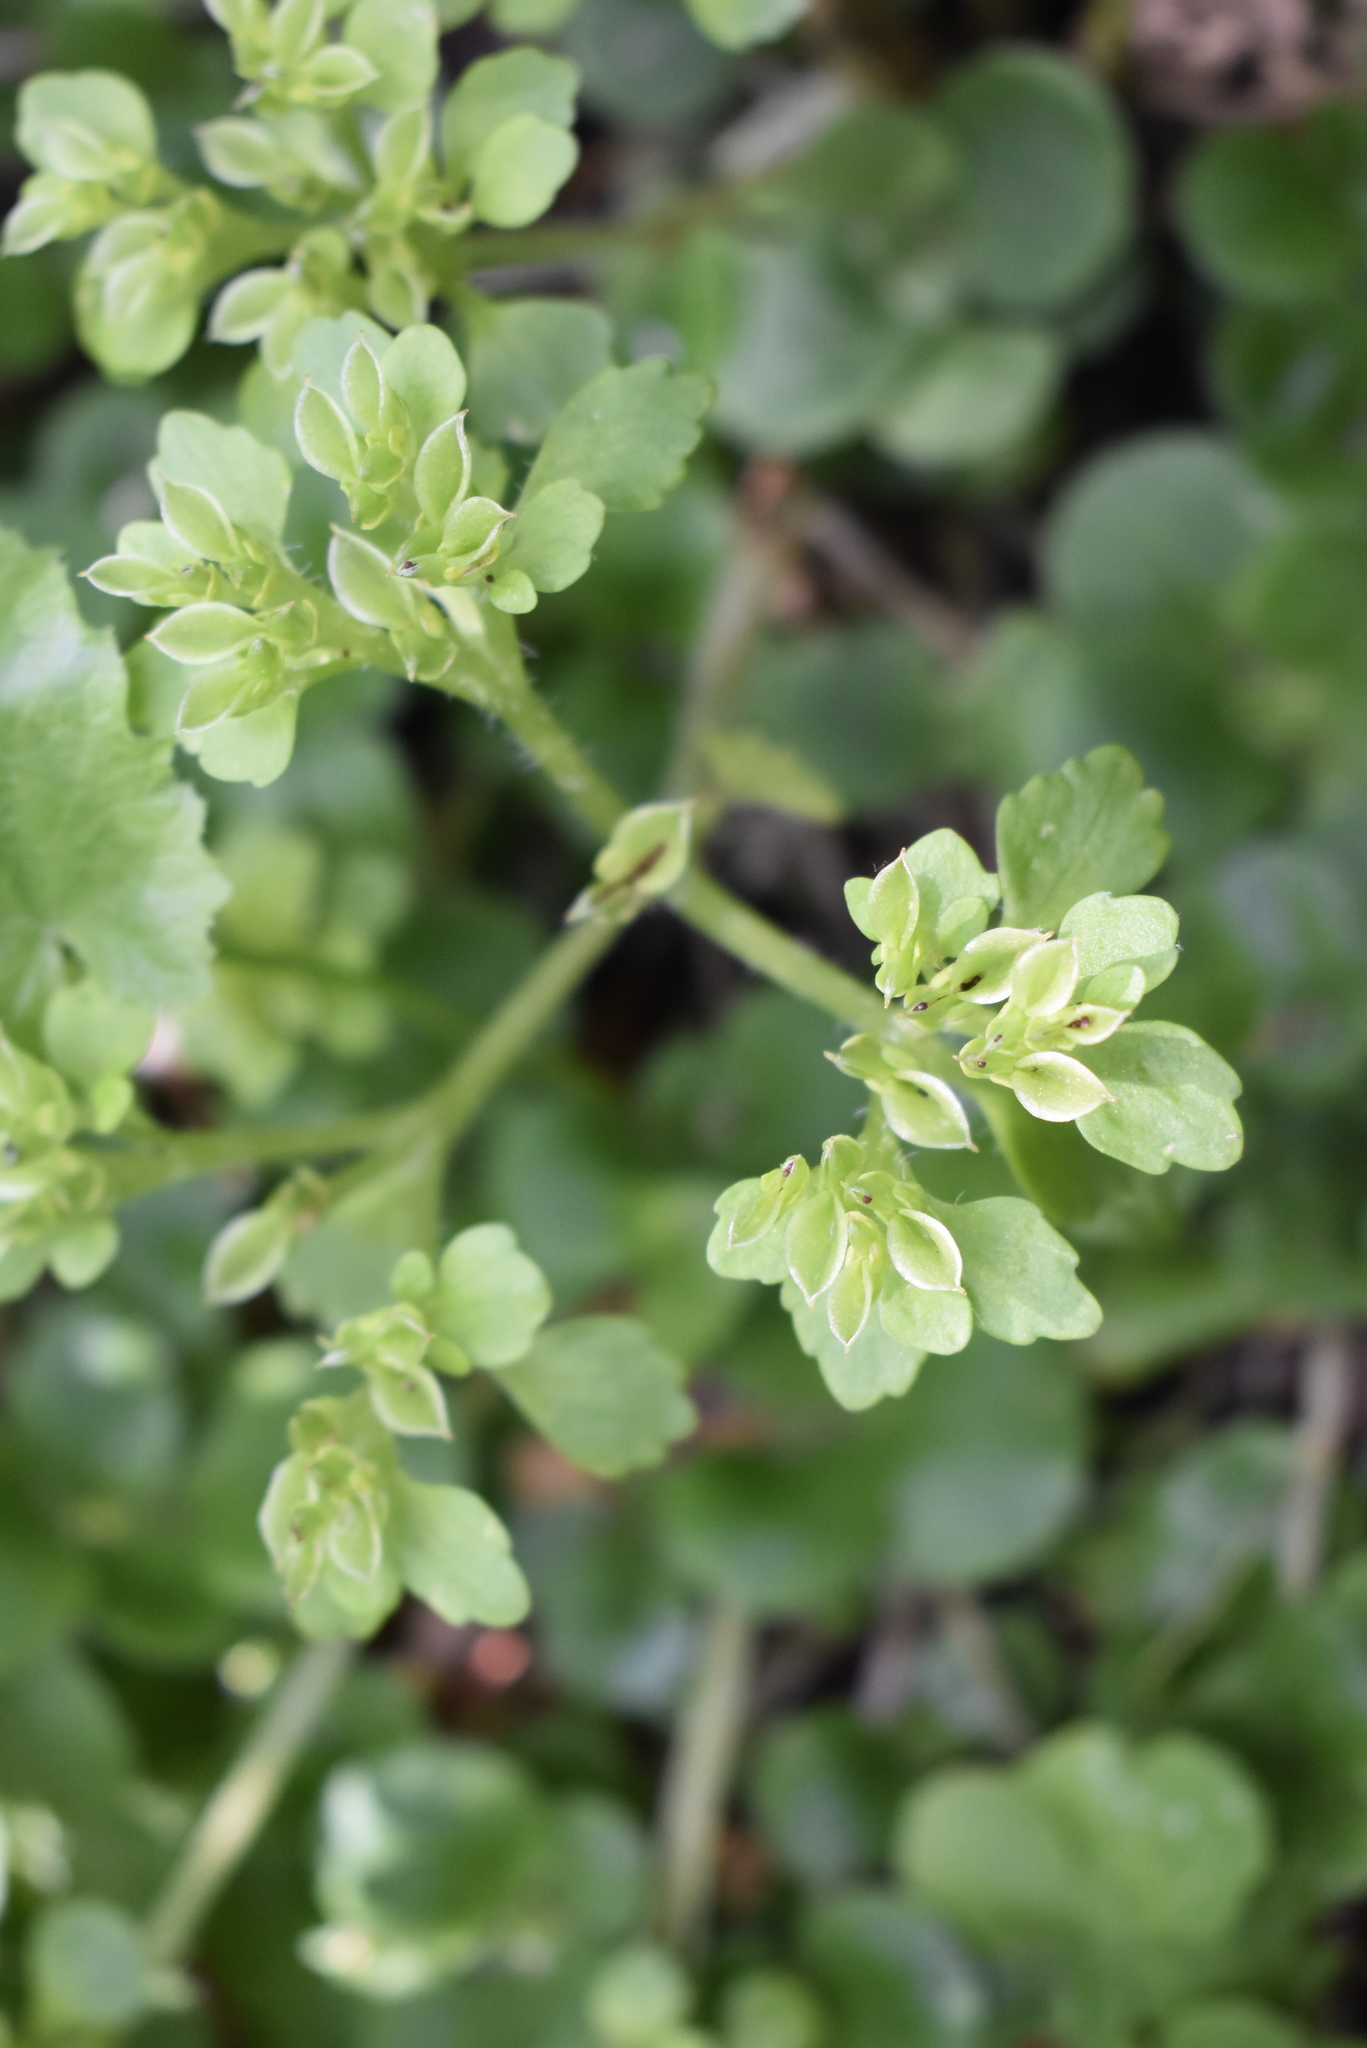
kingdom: Plantae
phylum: Tracheophyta
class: Magnoliopsida
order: Saxifragales
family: Saxifragaceae
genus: Chrysosplenium
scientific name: Chrysosplenium pilosum
